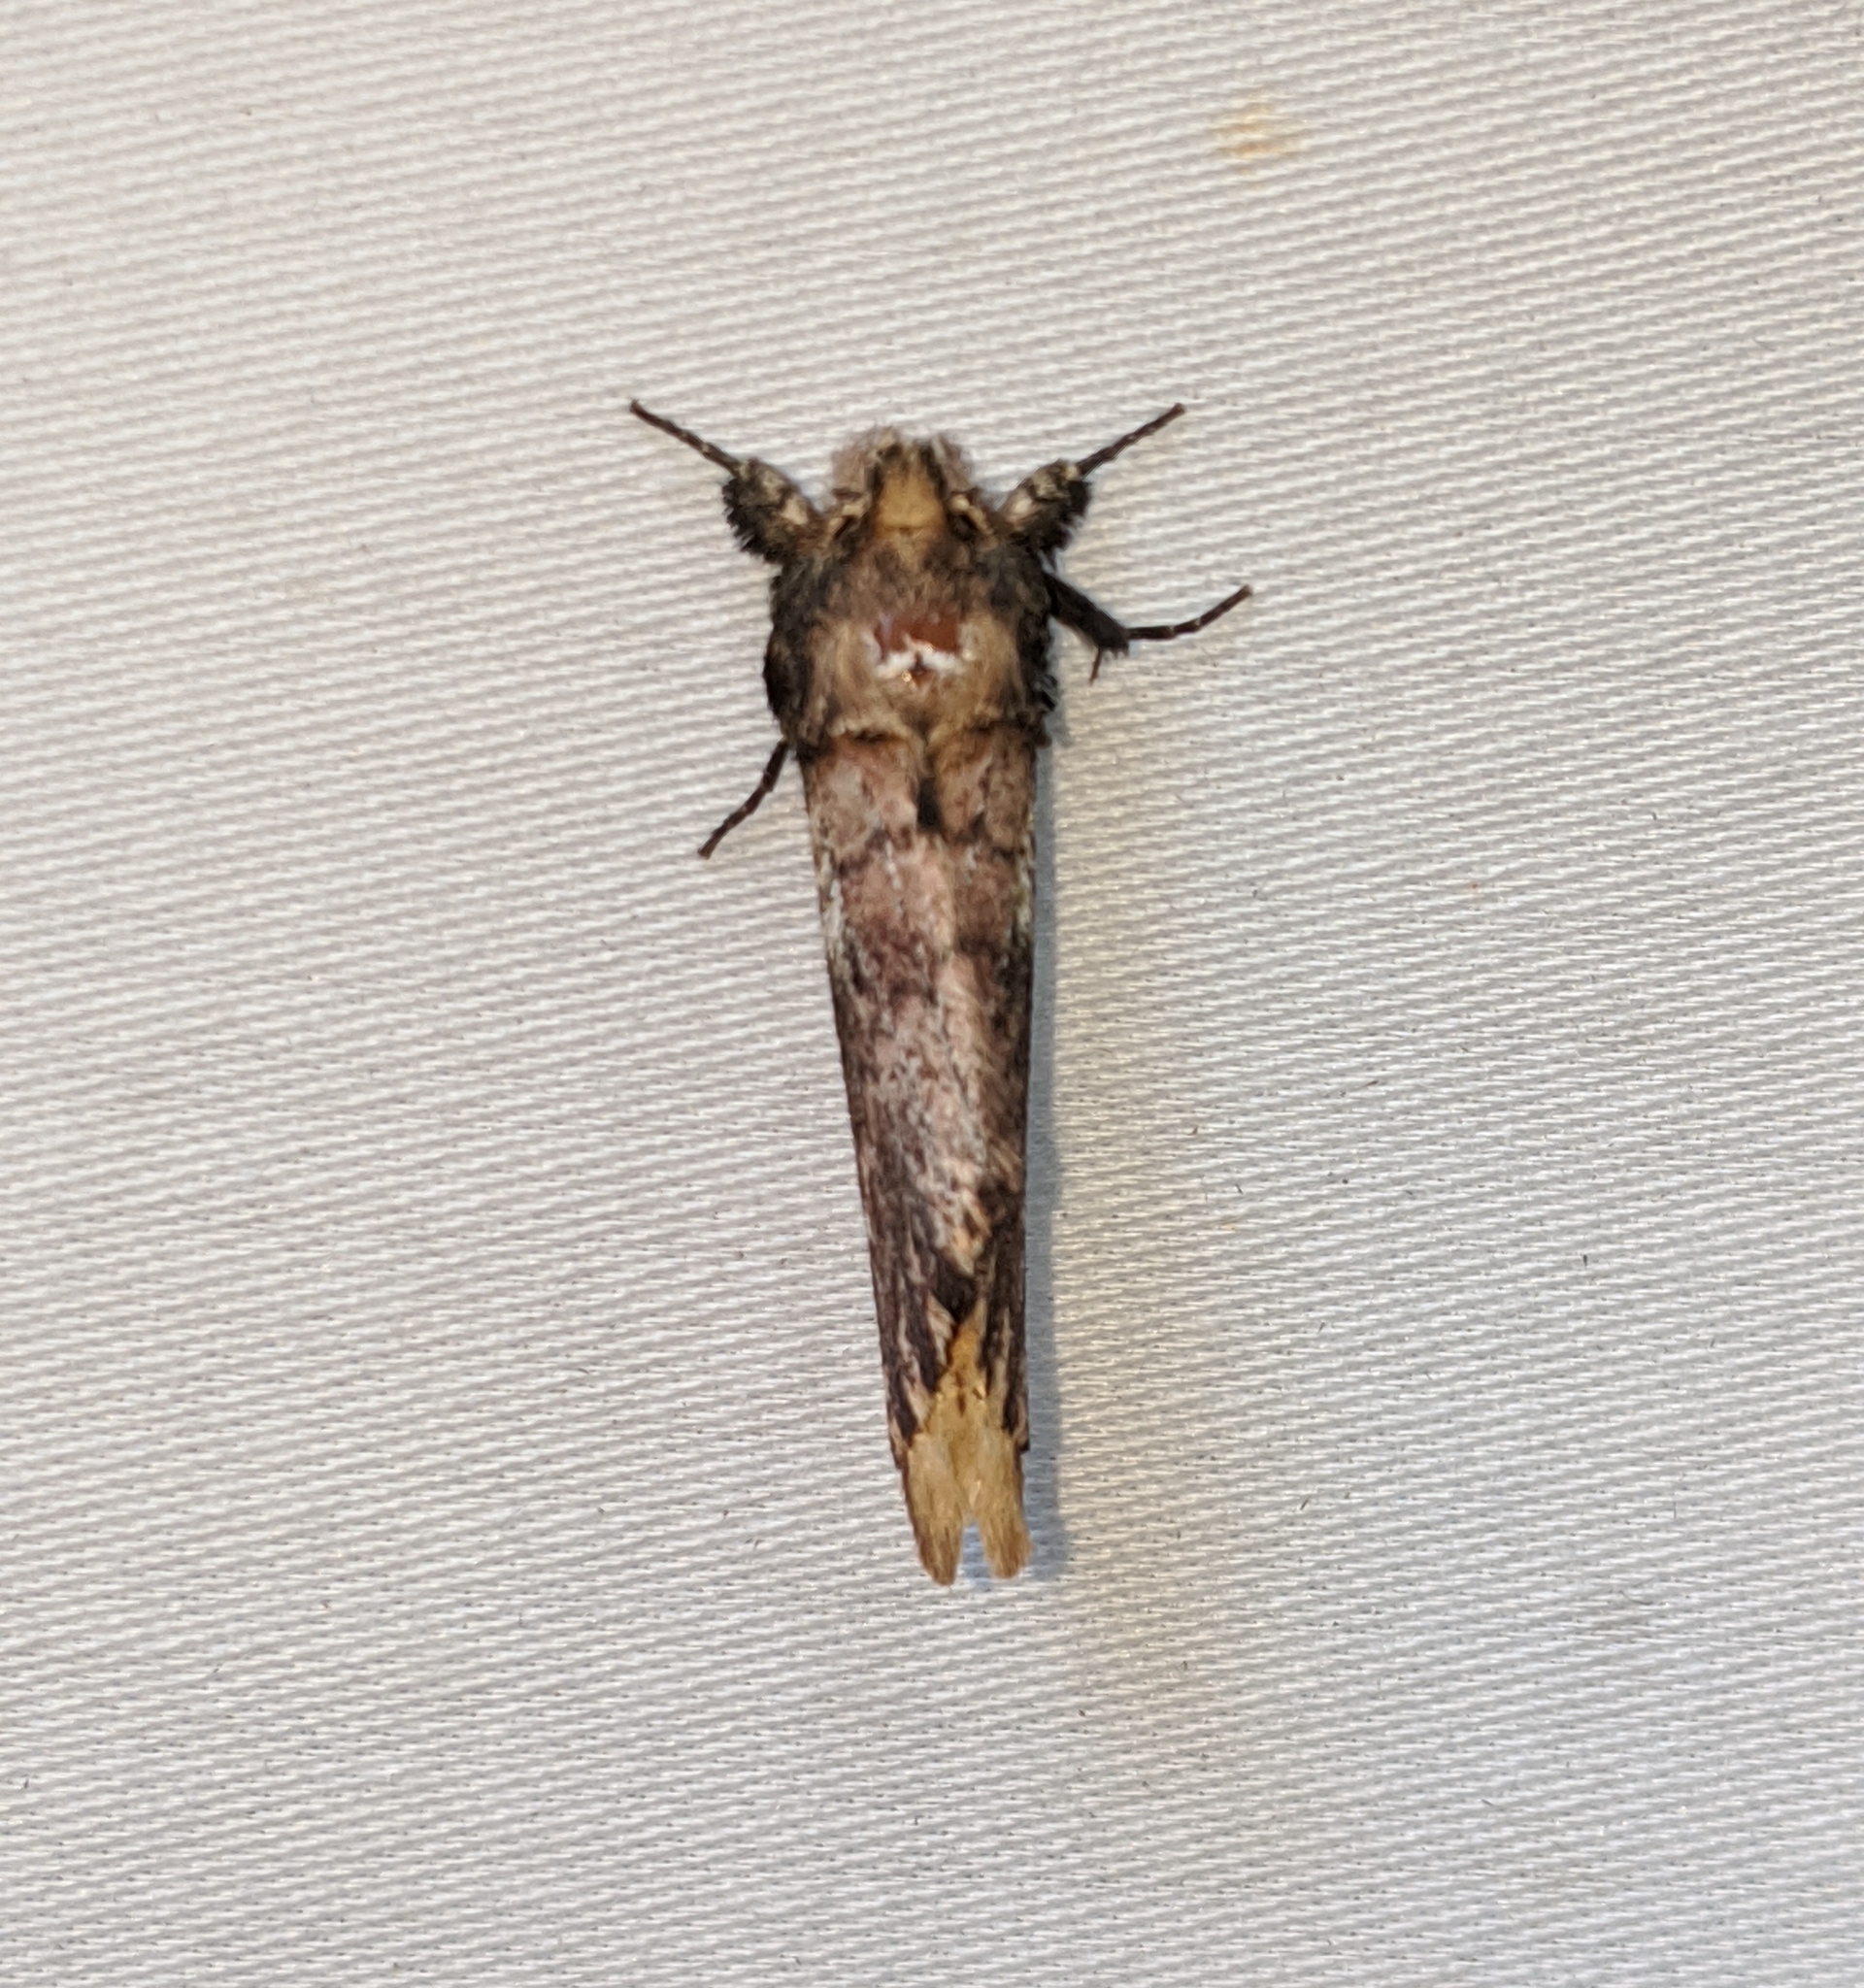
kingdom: Animalia
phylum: Arthropoda
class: Insecta
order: Lepidoptera
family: Notodontidae
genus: Schizura
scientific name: Schizura ipomaeae
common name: Morning-glory prominent
